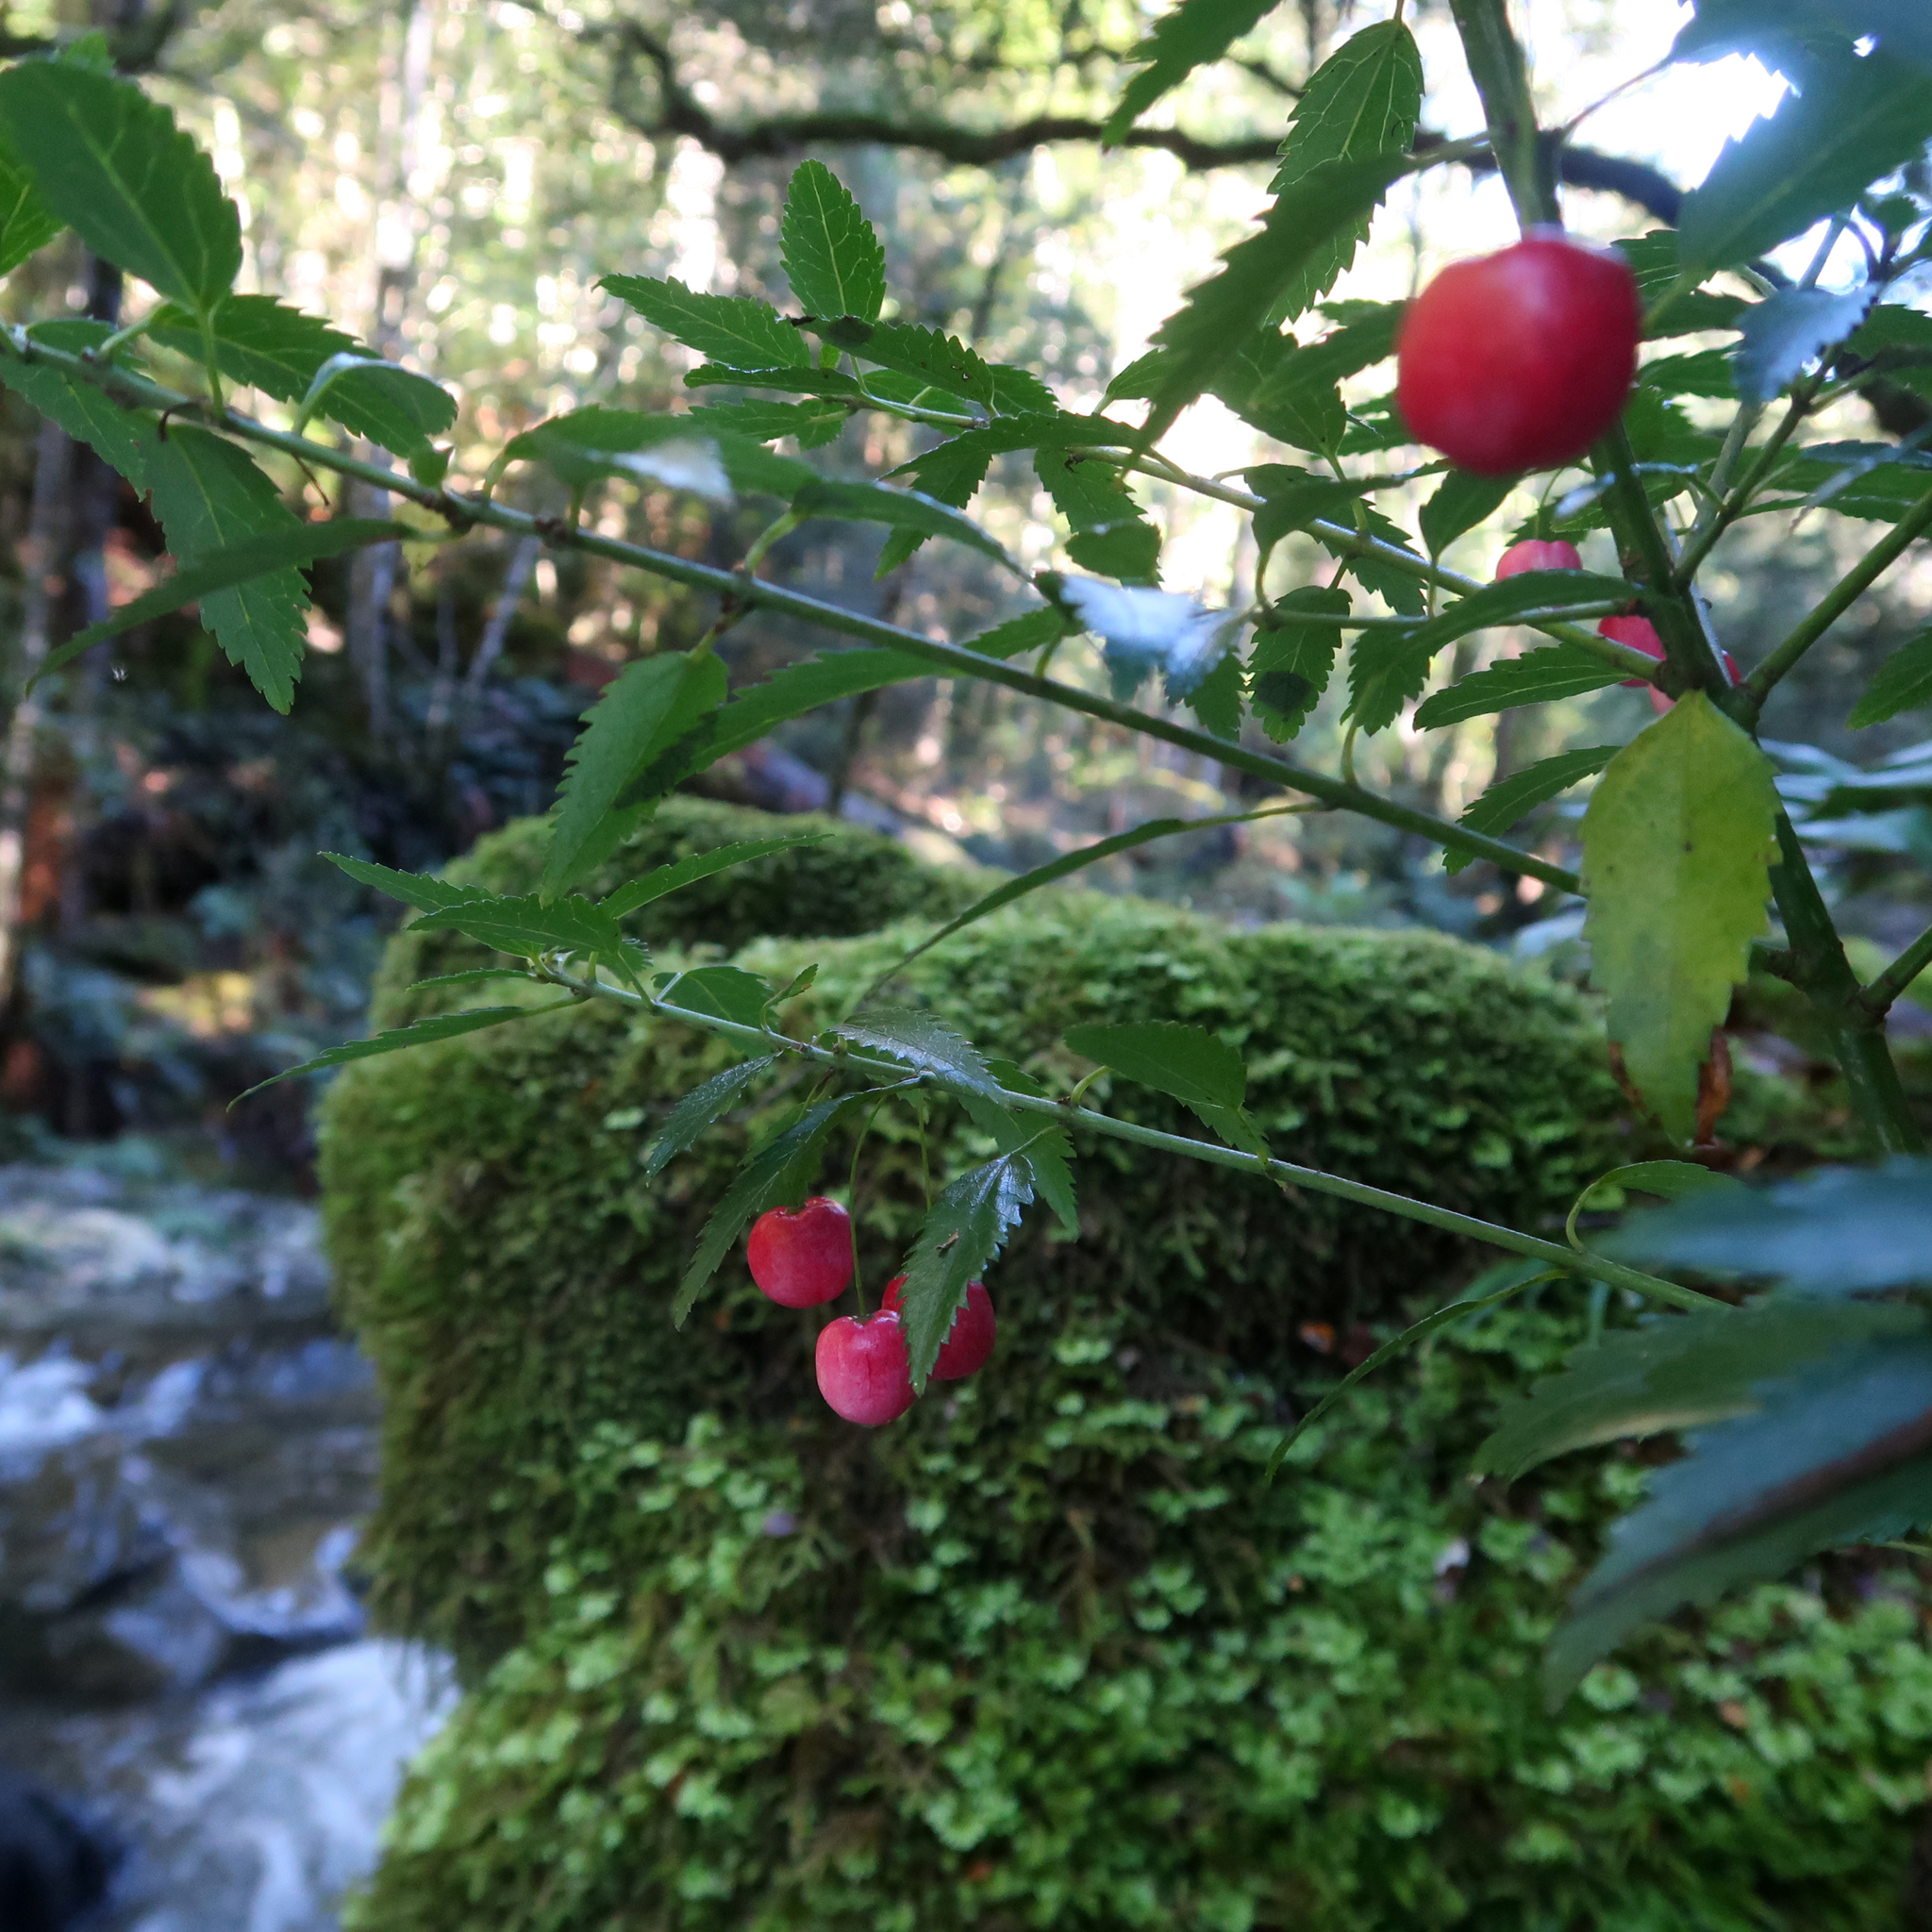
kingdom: Plantae
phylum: Tracheophyta
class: Magnoliopsida
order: Oxalidales
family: Elaeocarpaceae
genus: Aristotelia
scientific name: Aristotelia peduncularis
